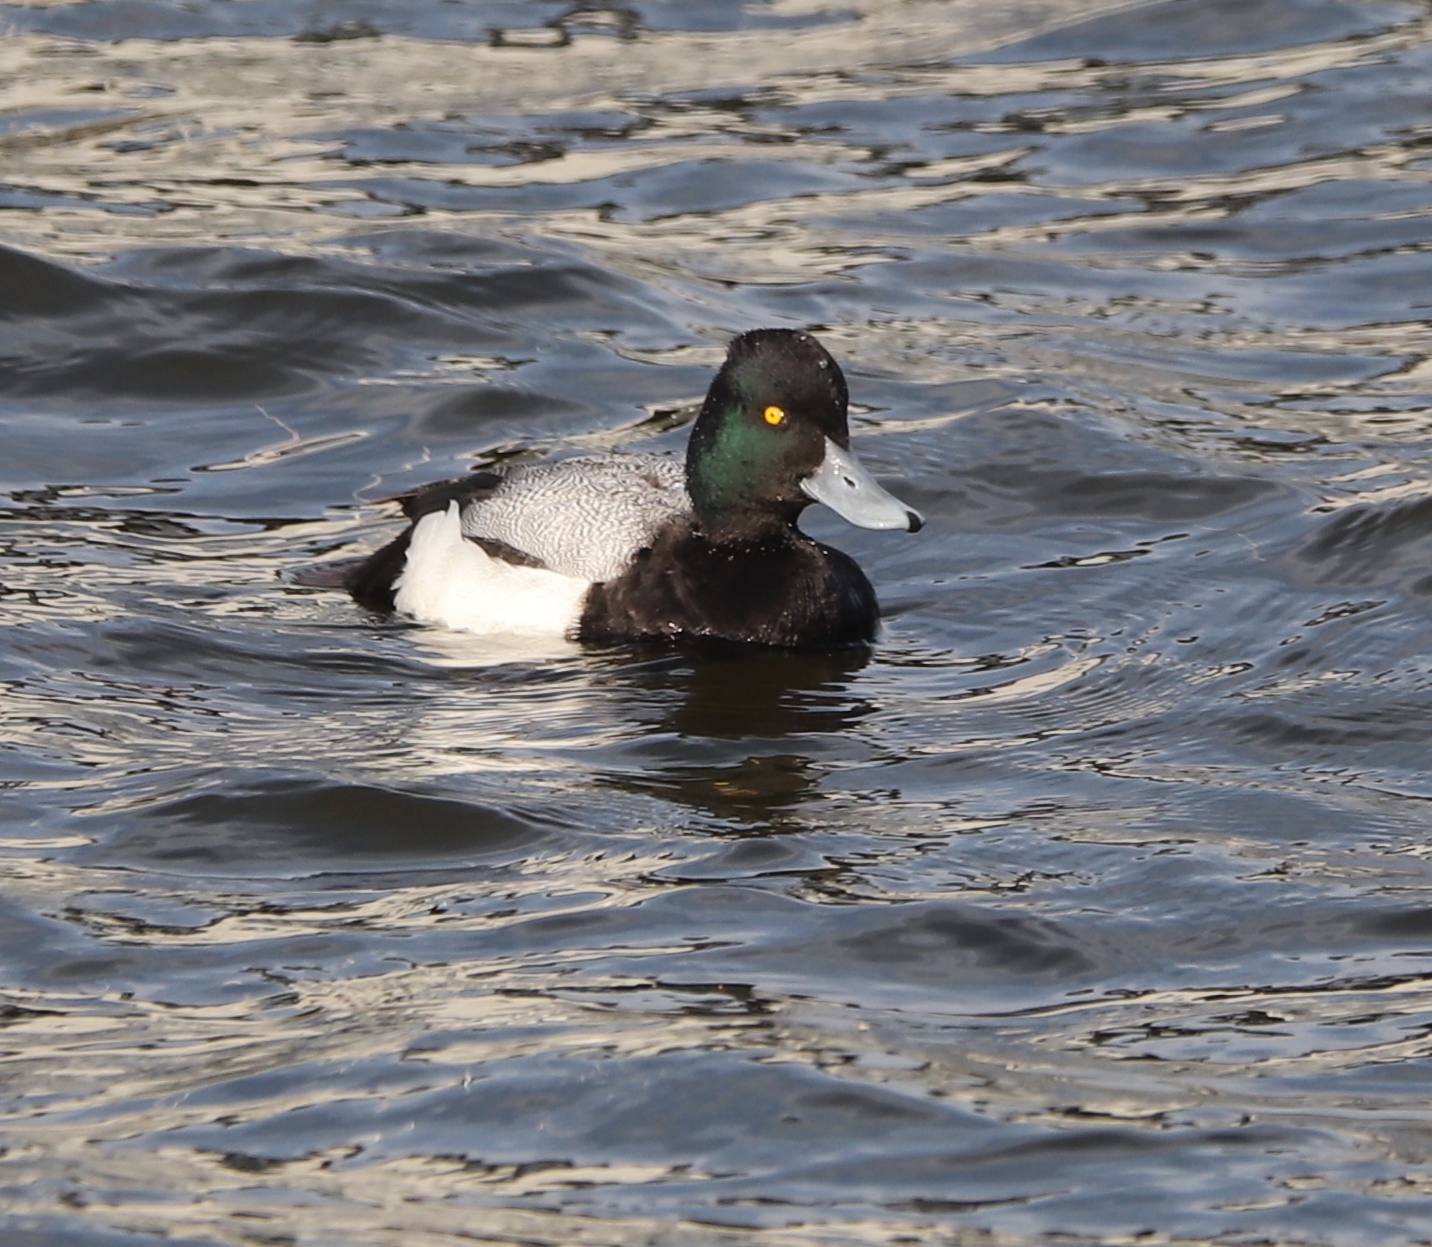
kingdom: Animalia
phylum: Chordata
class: Aves
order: Anseriformes
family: Anatidae
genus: Aythya
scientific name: Aythya marila
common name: Greater scaup
